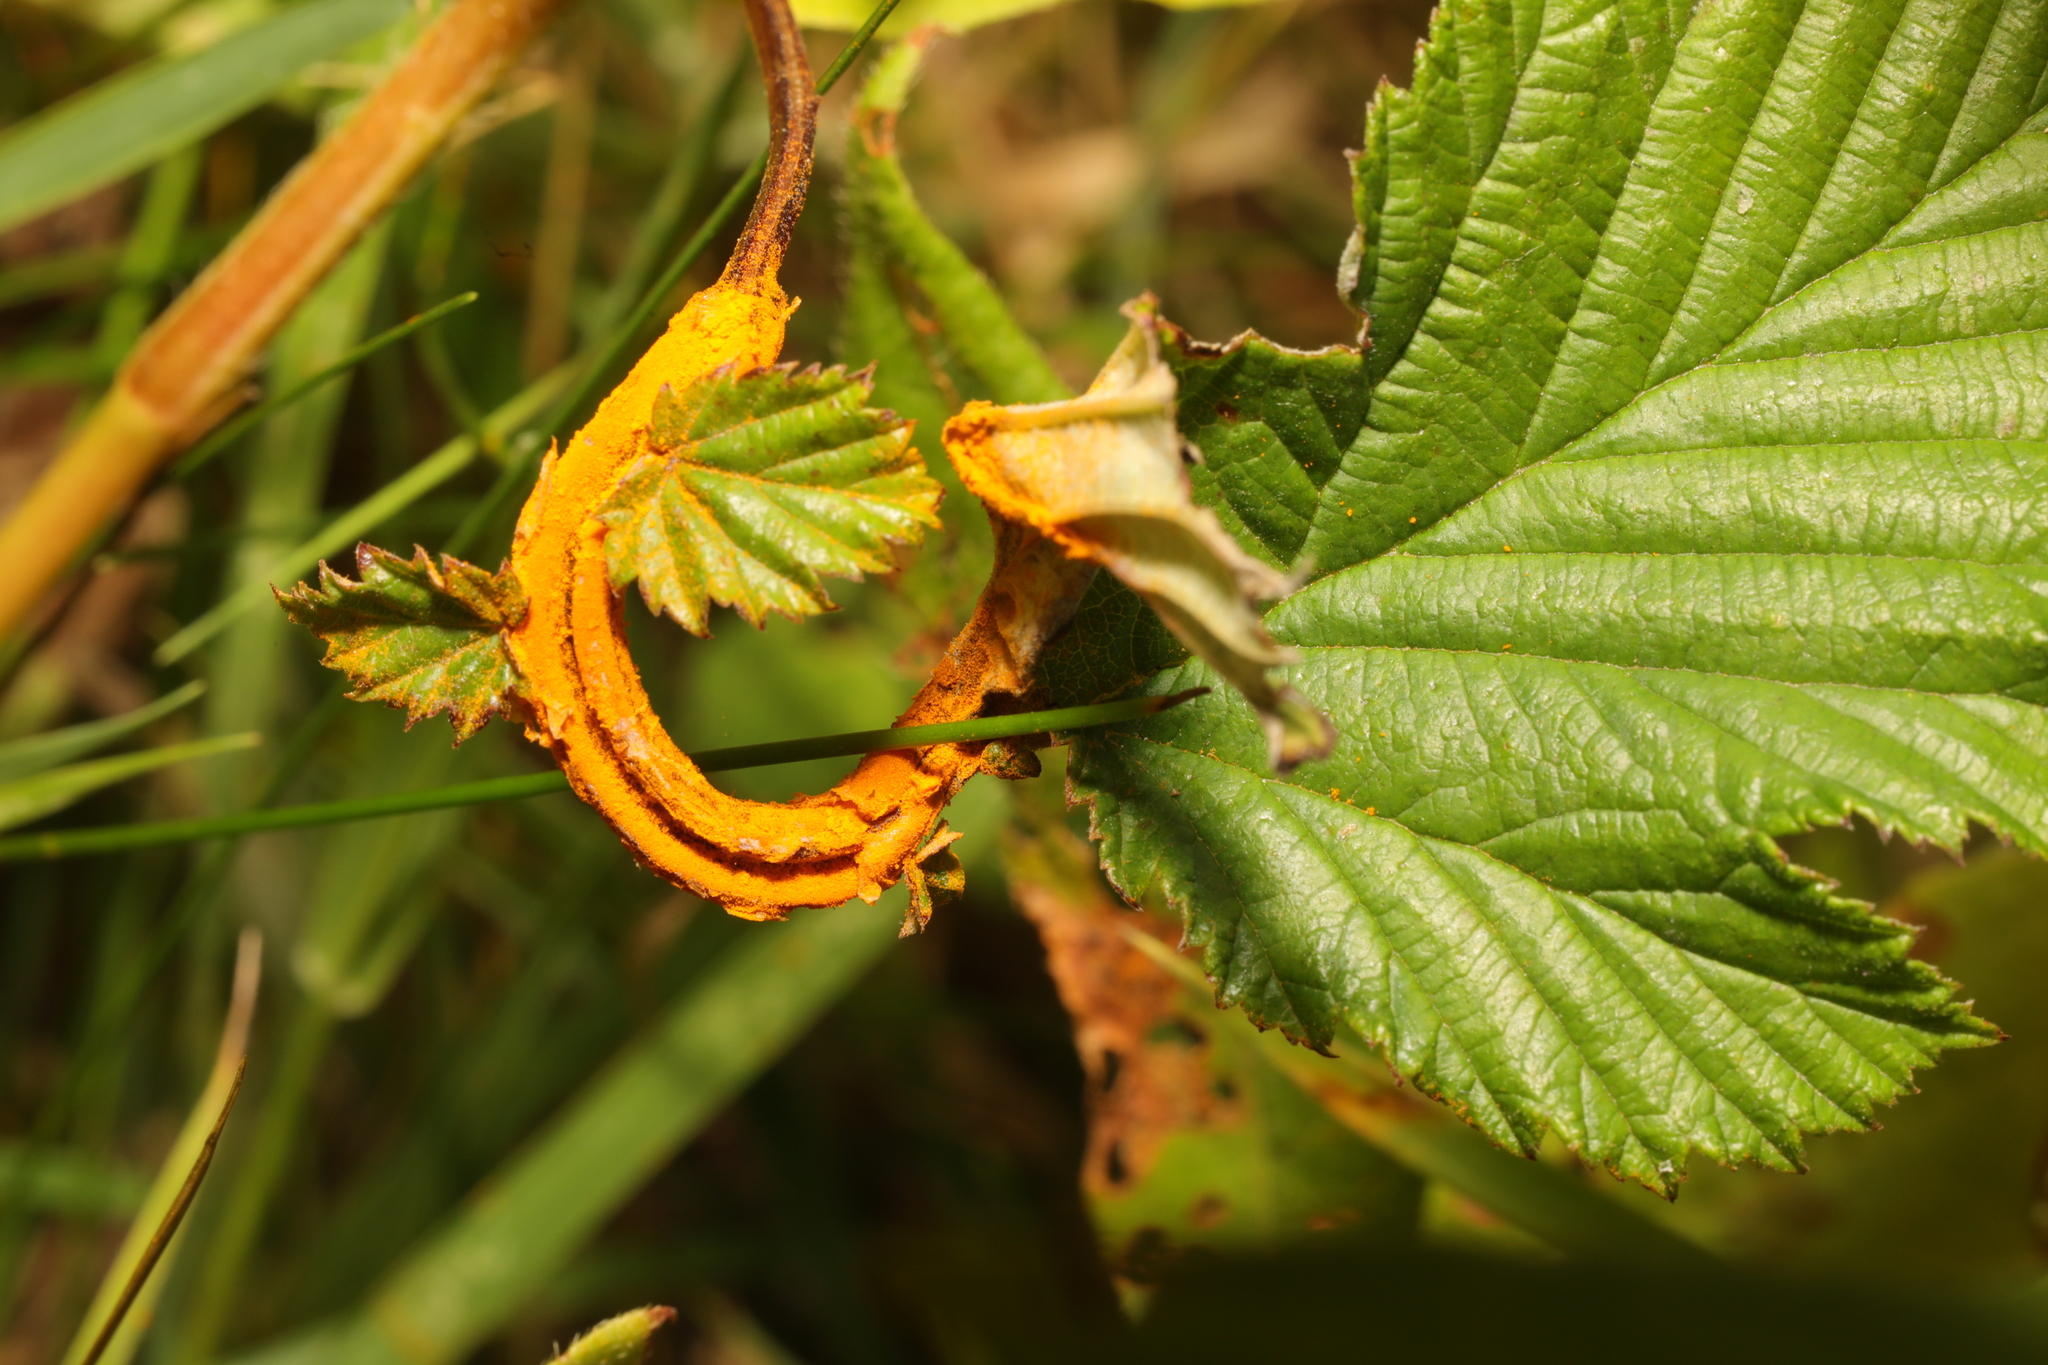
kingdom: Fungi
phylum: Basidiomycota
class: Pucciniomycetes
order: Pucciniales
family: Raveneliaceae
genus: Triphragmium
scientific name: Triphragmium ulmariae
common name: Meadowsweet rust
